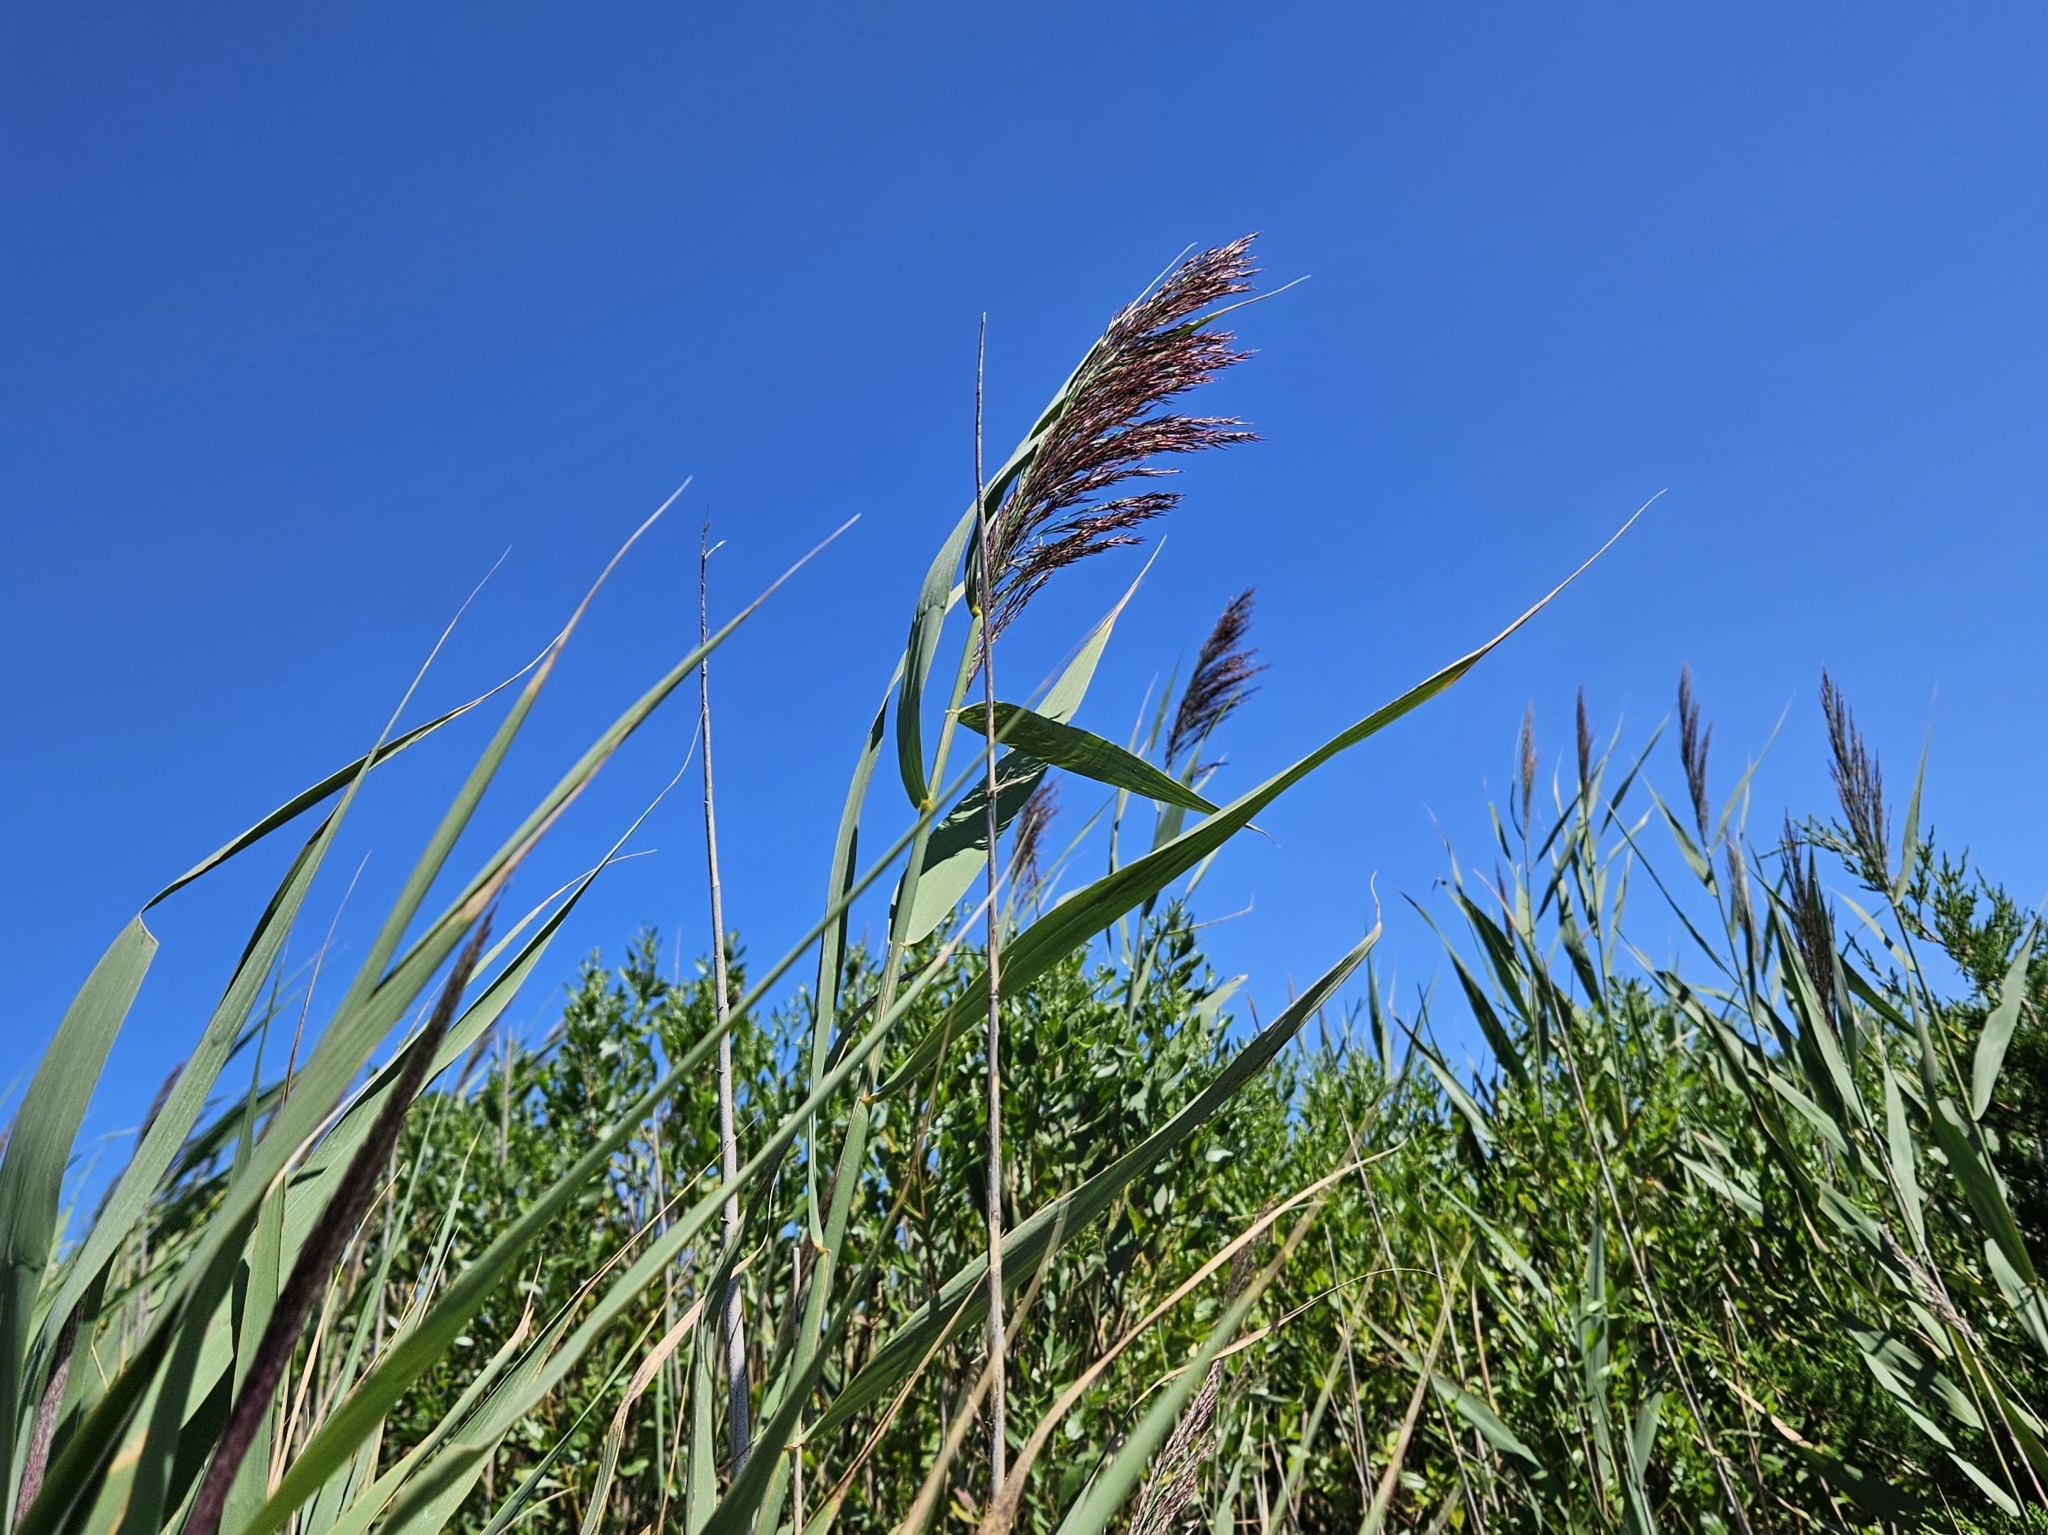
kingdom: Plantae
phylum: Tracheophyta
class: Liliopsida
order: Poales
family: Poaceae
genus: Phragmites
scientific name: Phragmites australis
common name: Common reed
